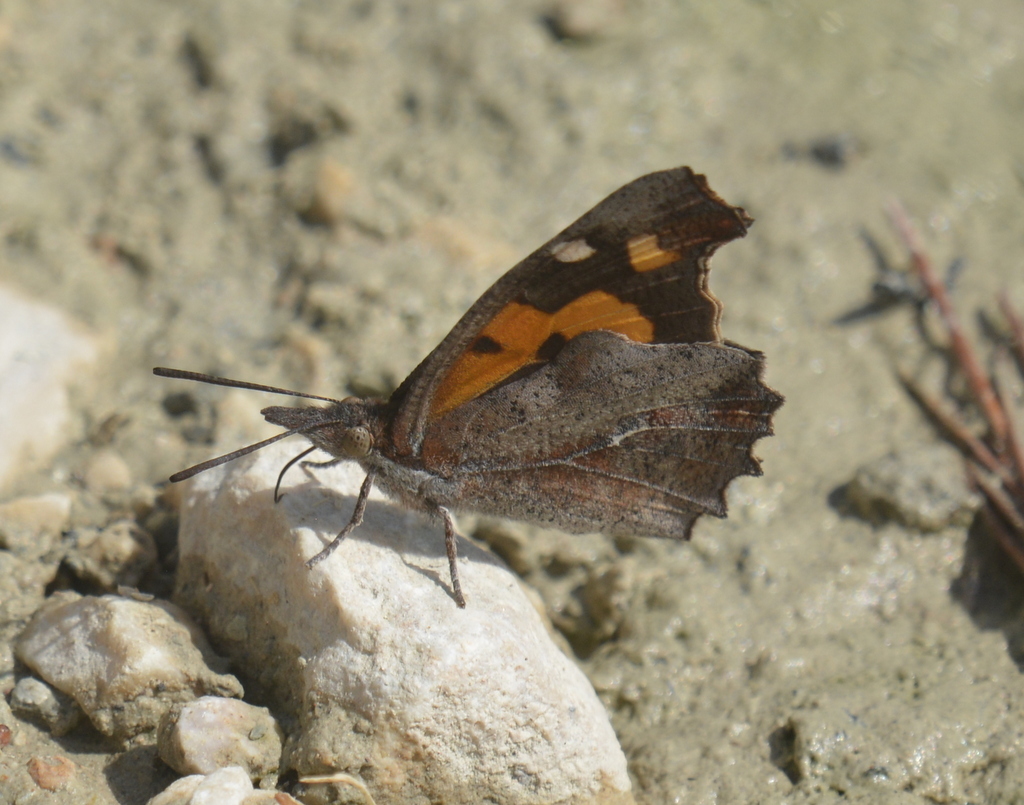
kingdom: Animalia
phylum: Arthropoda
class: Insecta
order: Lepidoptera
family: Nymphalidae
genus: Libythea
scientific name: Libythea celtis
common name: Nettle-tree butterfly
